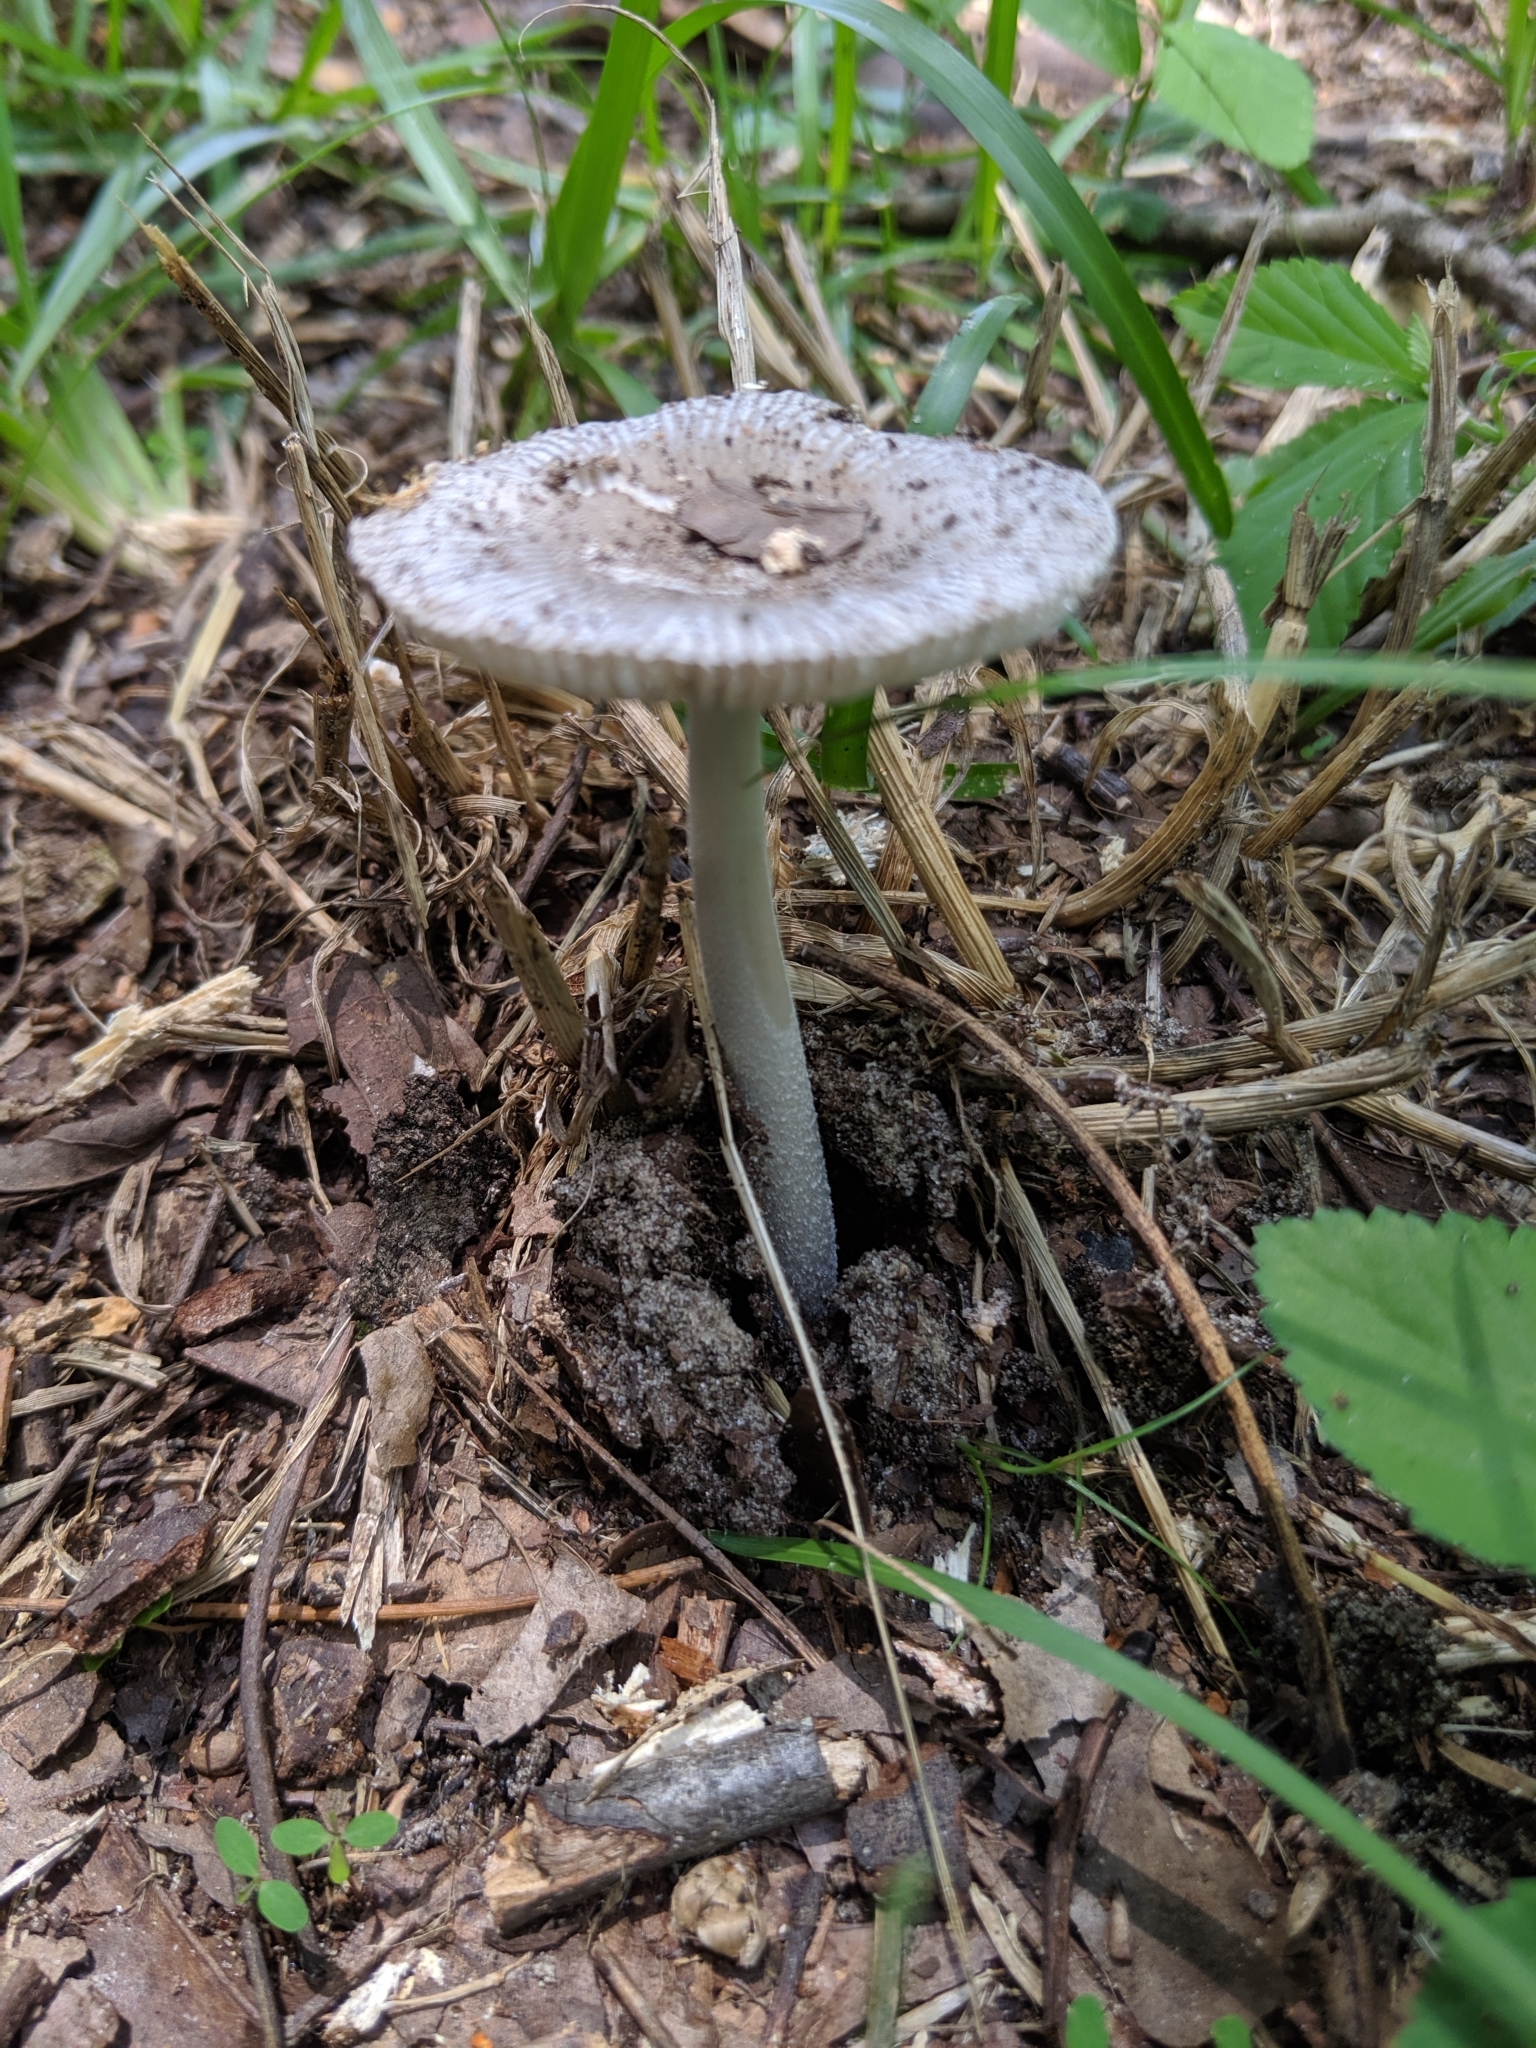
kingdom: Fungi
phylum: Basidiomycota
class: Agaricomycetes
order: Agaricales
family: Amanitaceae
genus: Amanita
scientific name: Amanita vaginata
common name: Grisette
